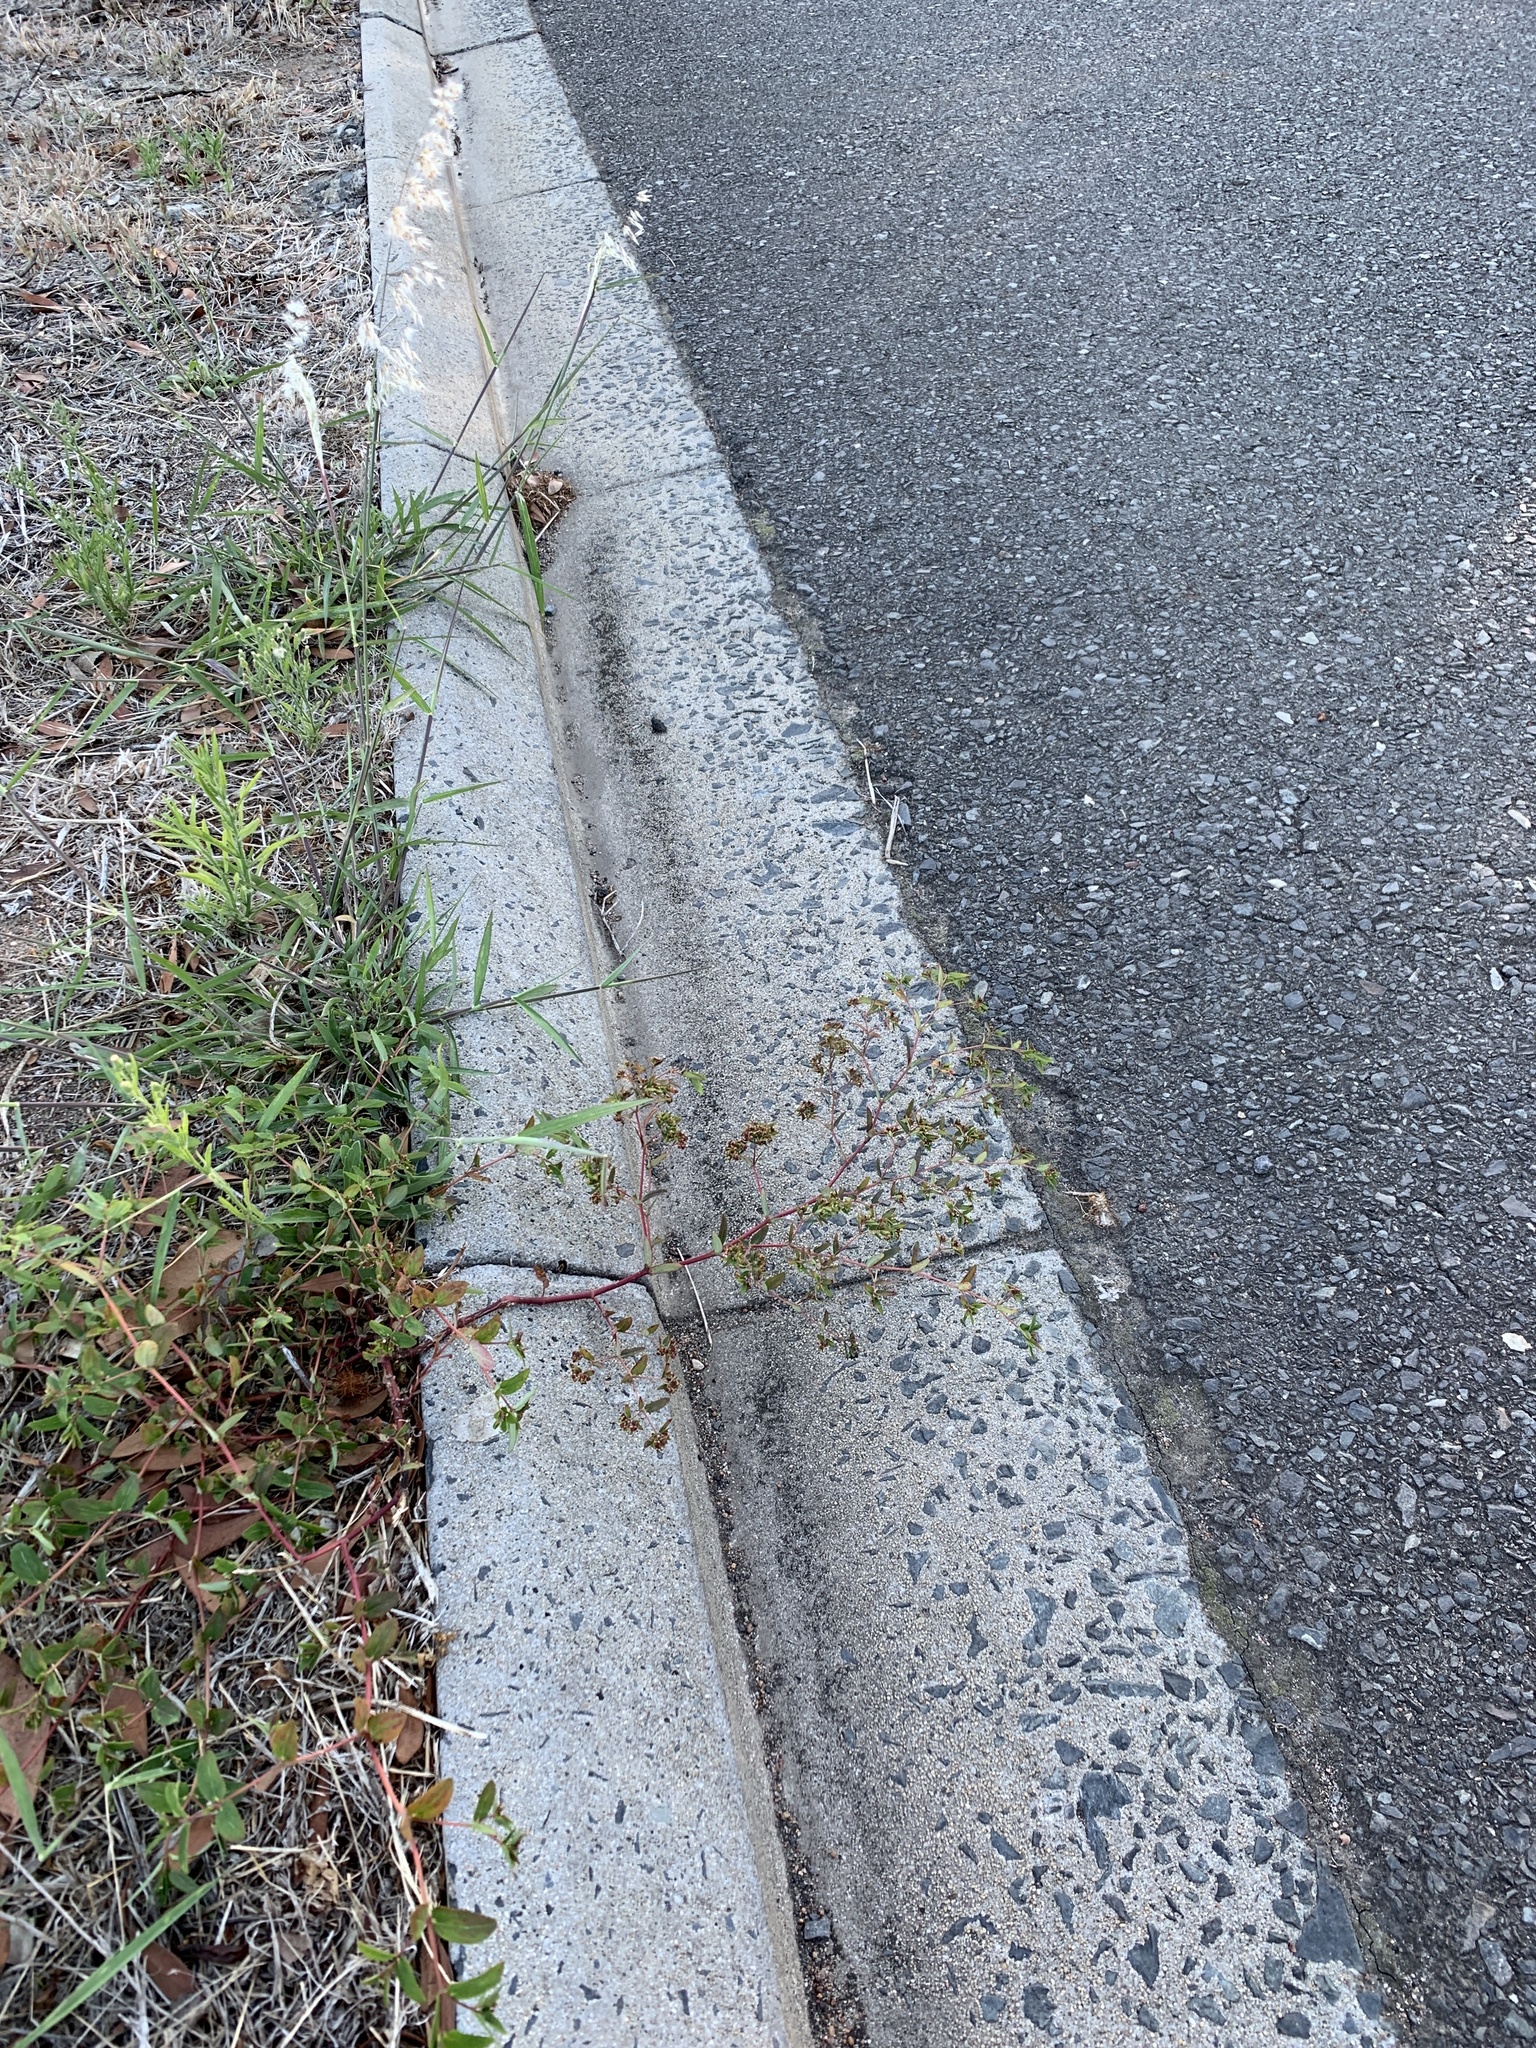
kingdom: Plantae
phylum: Tracheophyta
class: Magnoliopsida
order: Malpighiales
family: Euphorbiaceae
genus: Euphorbia
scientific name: Euphorbia nutans
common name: Eyebane
